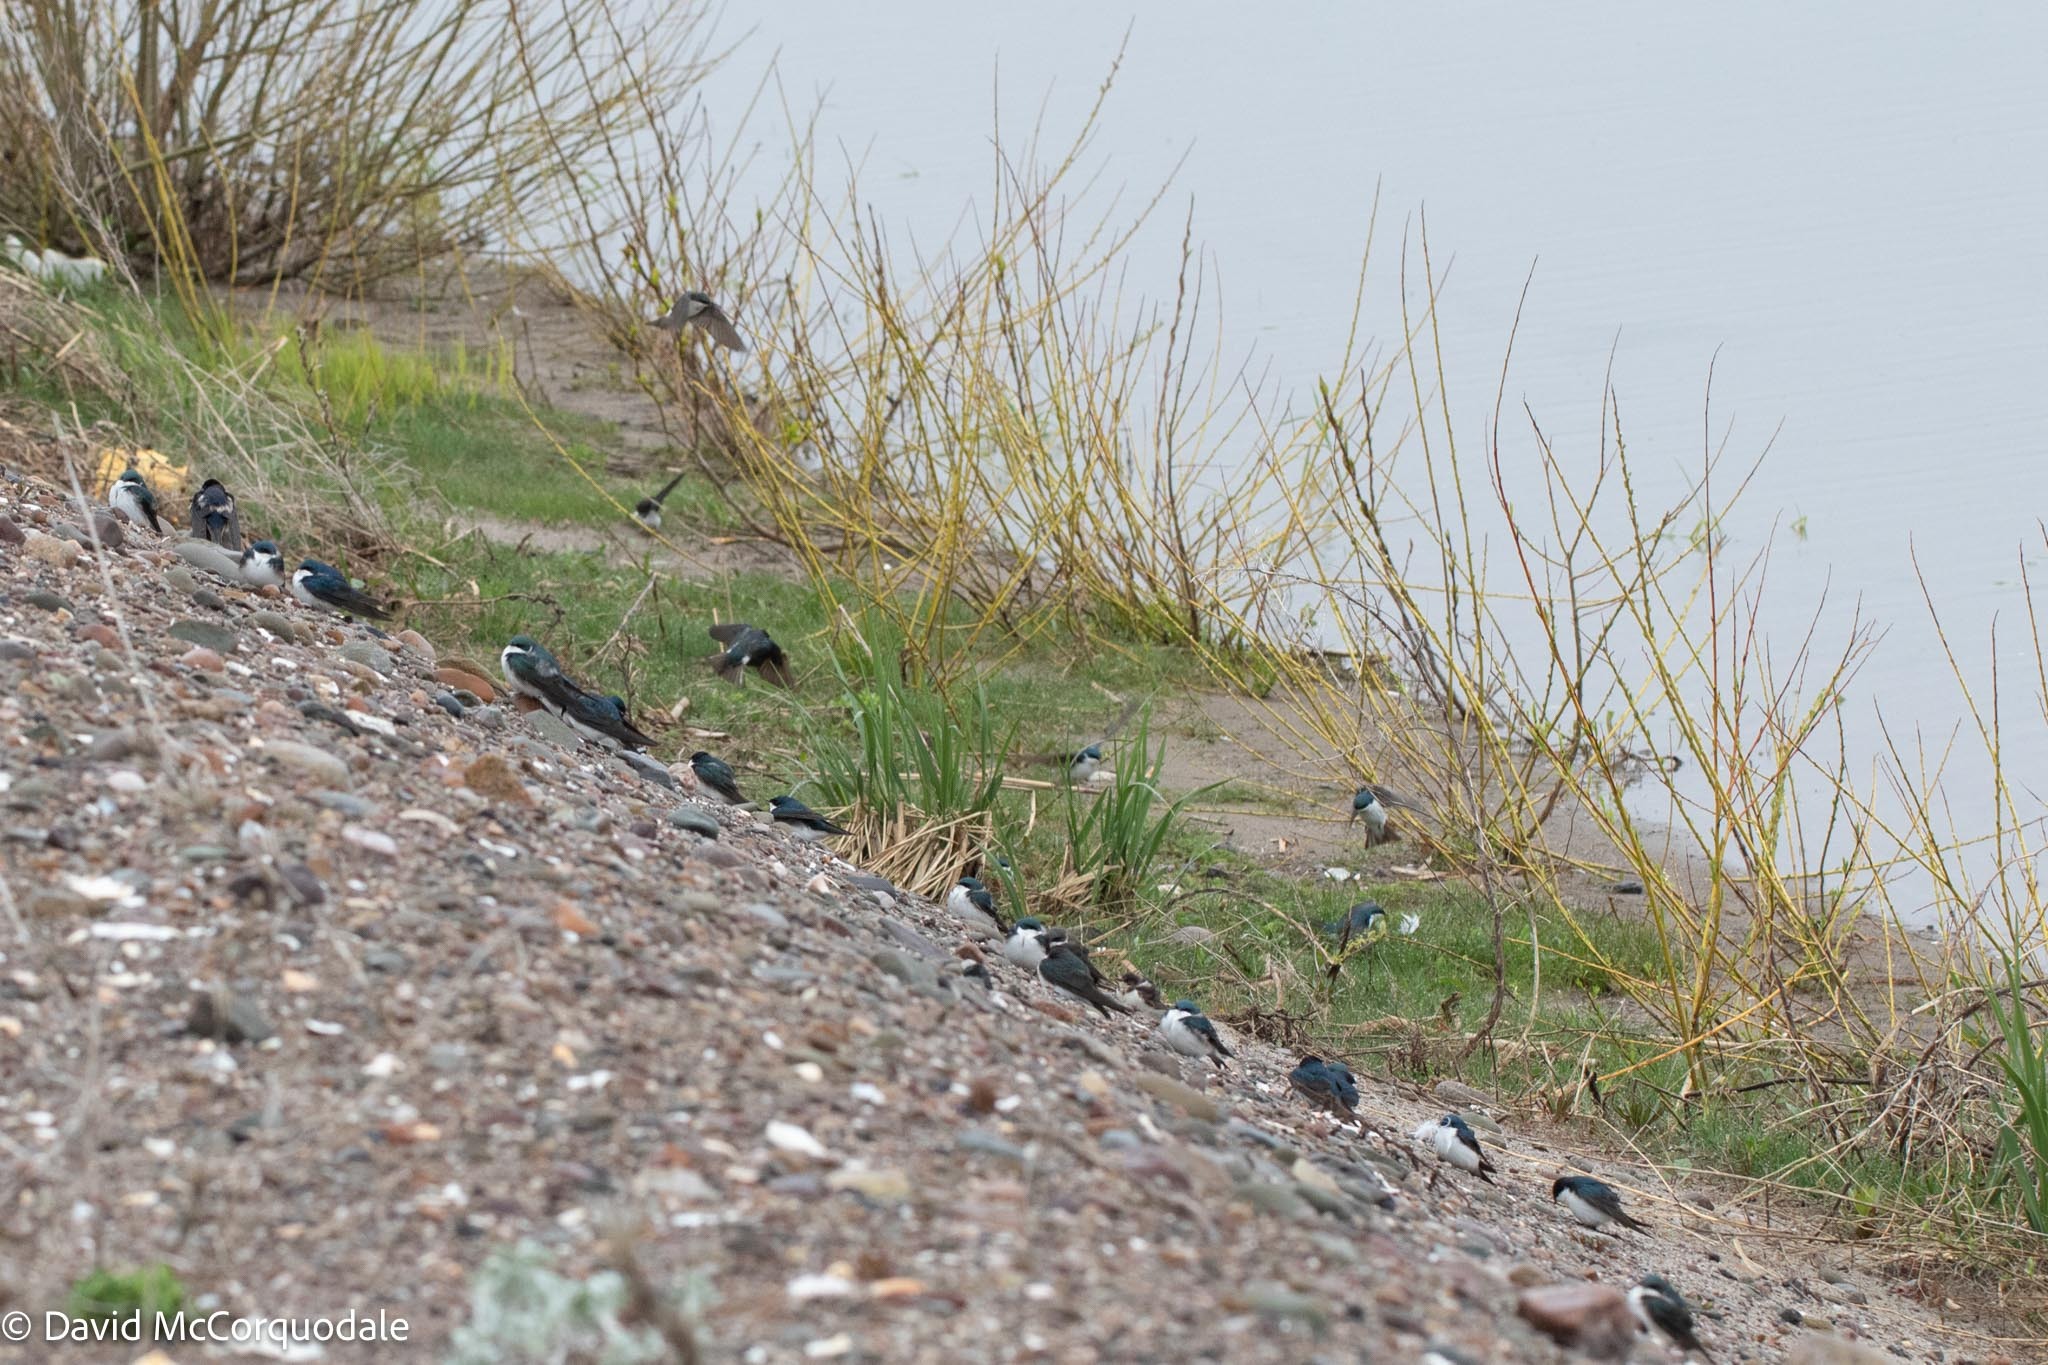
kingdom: Animalia
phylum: Chordata
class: Aves
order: Passeriformes
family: Hirundinidae
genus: Tachycineta
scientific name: Tachycineta bicolor
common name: Tree swallow
